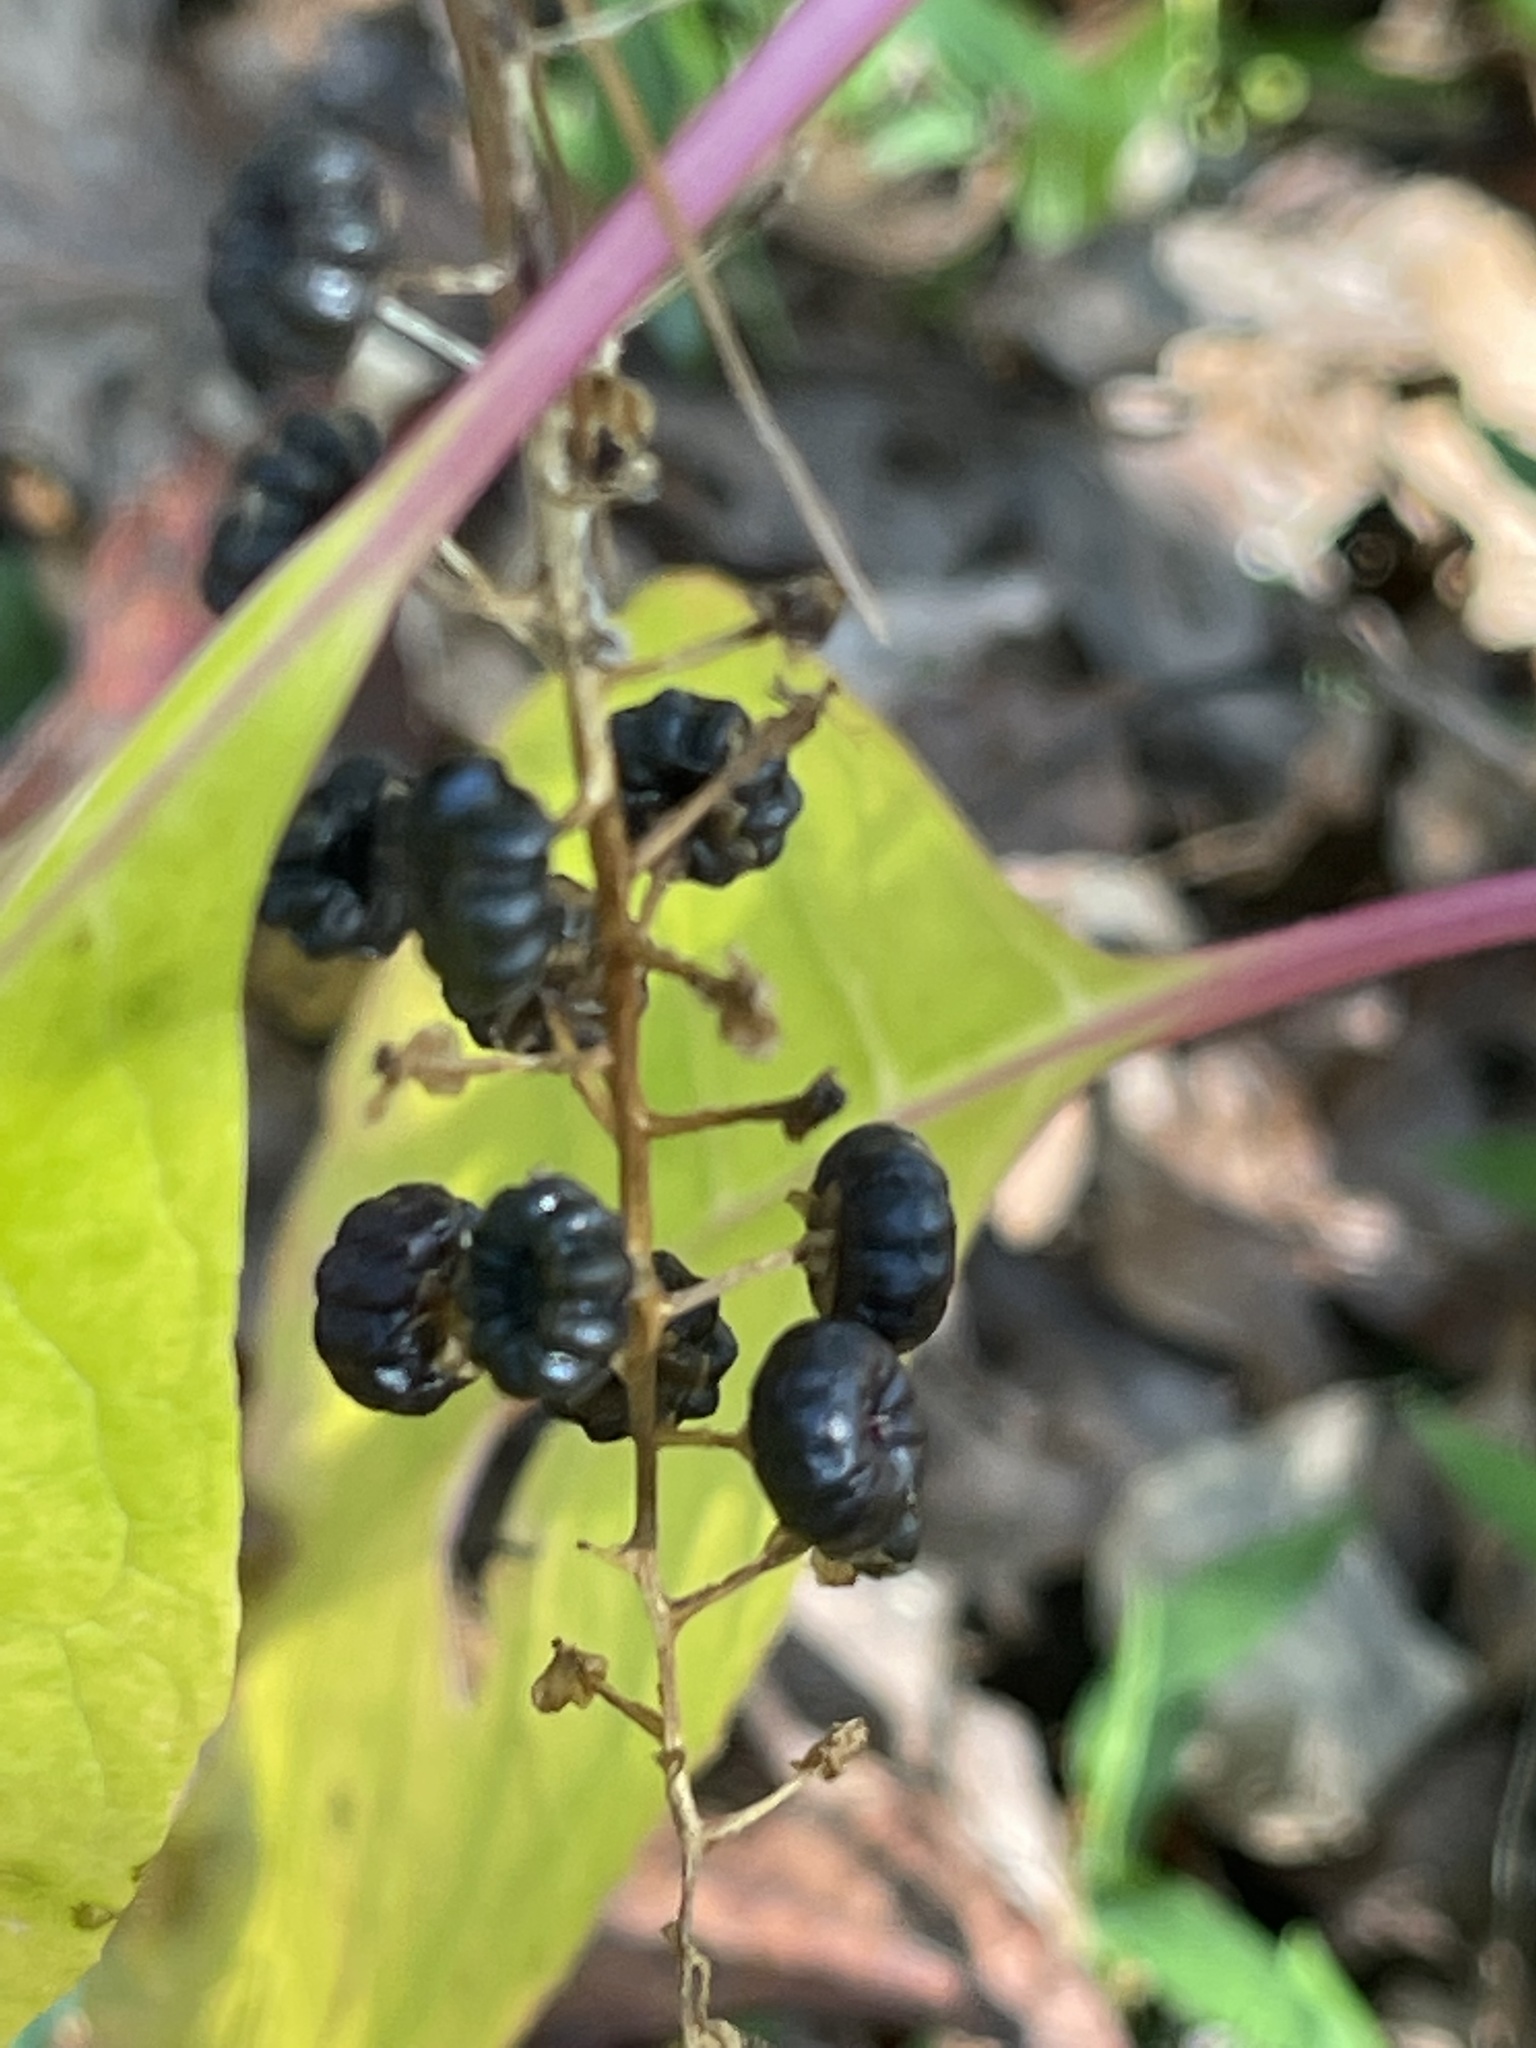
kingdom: Plantae
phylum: Tracheophyta
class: Magnoliopsida
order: Caryophyllales
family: Phytolaccaceae
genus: Phytolacca
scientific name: Phytolacca americana
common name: American pokeweed
